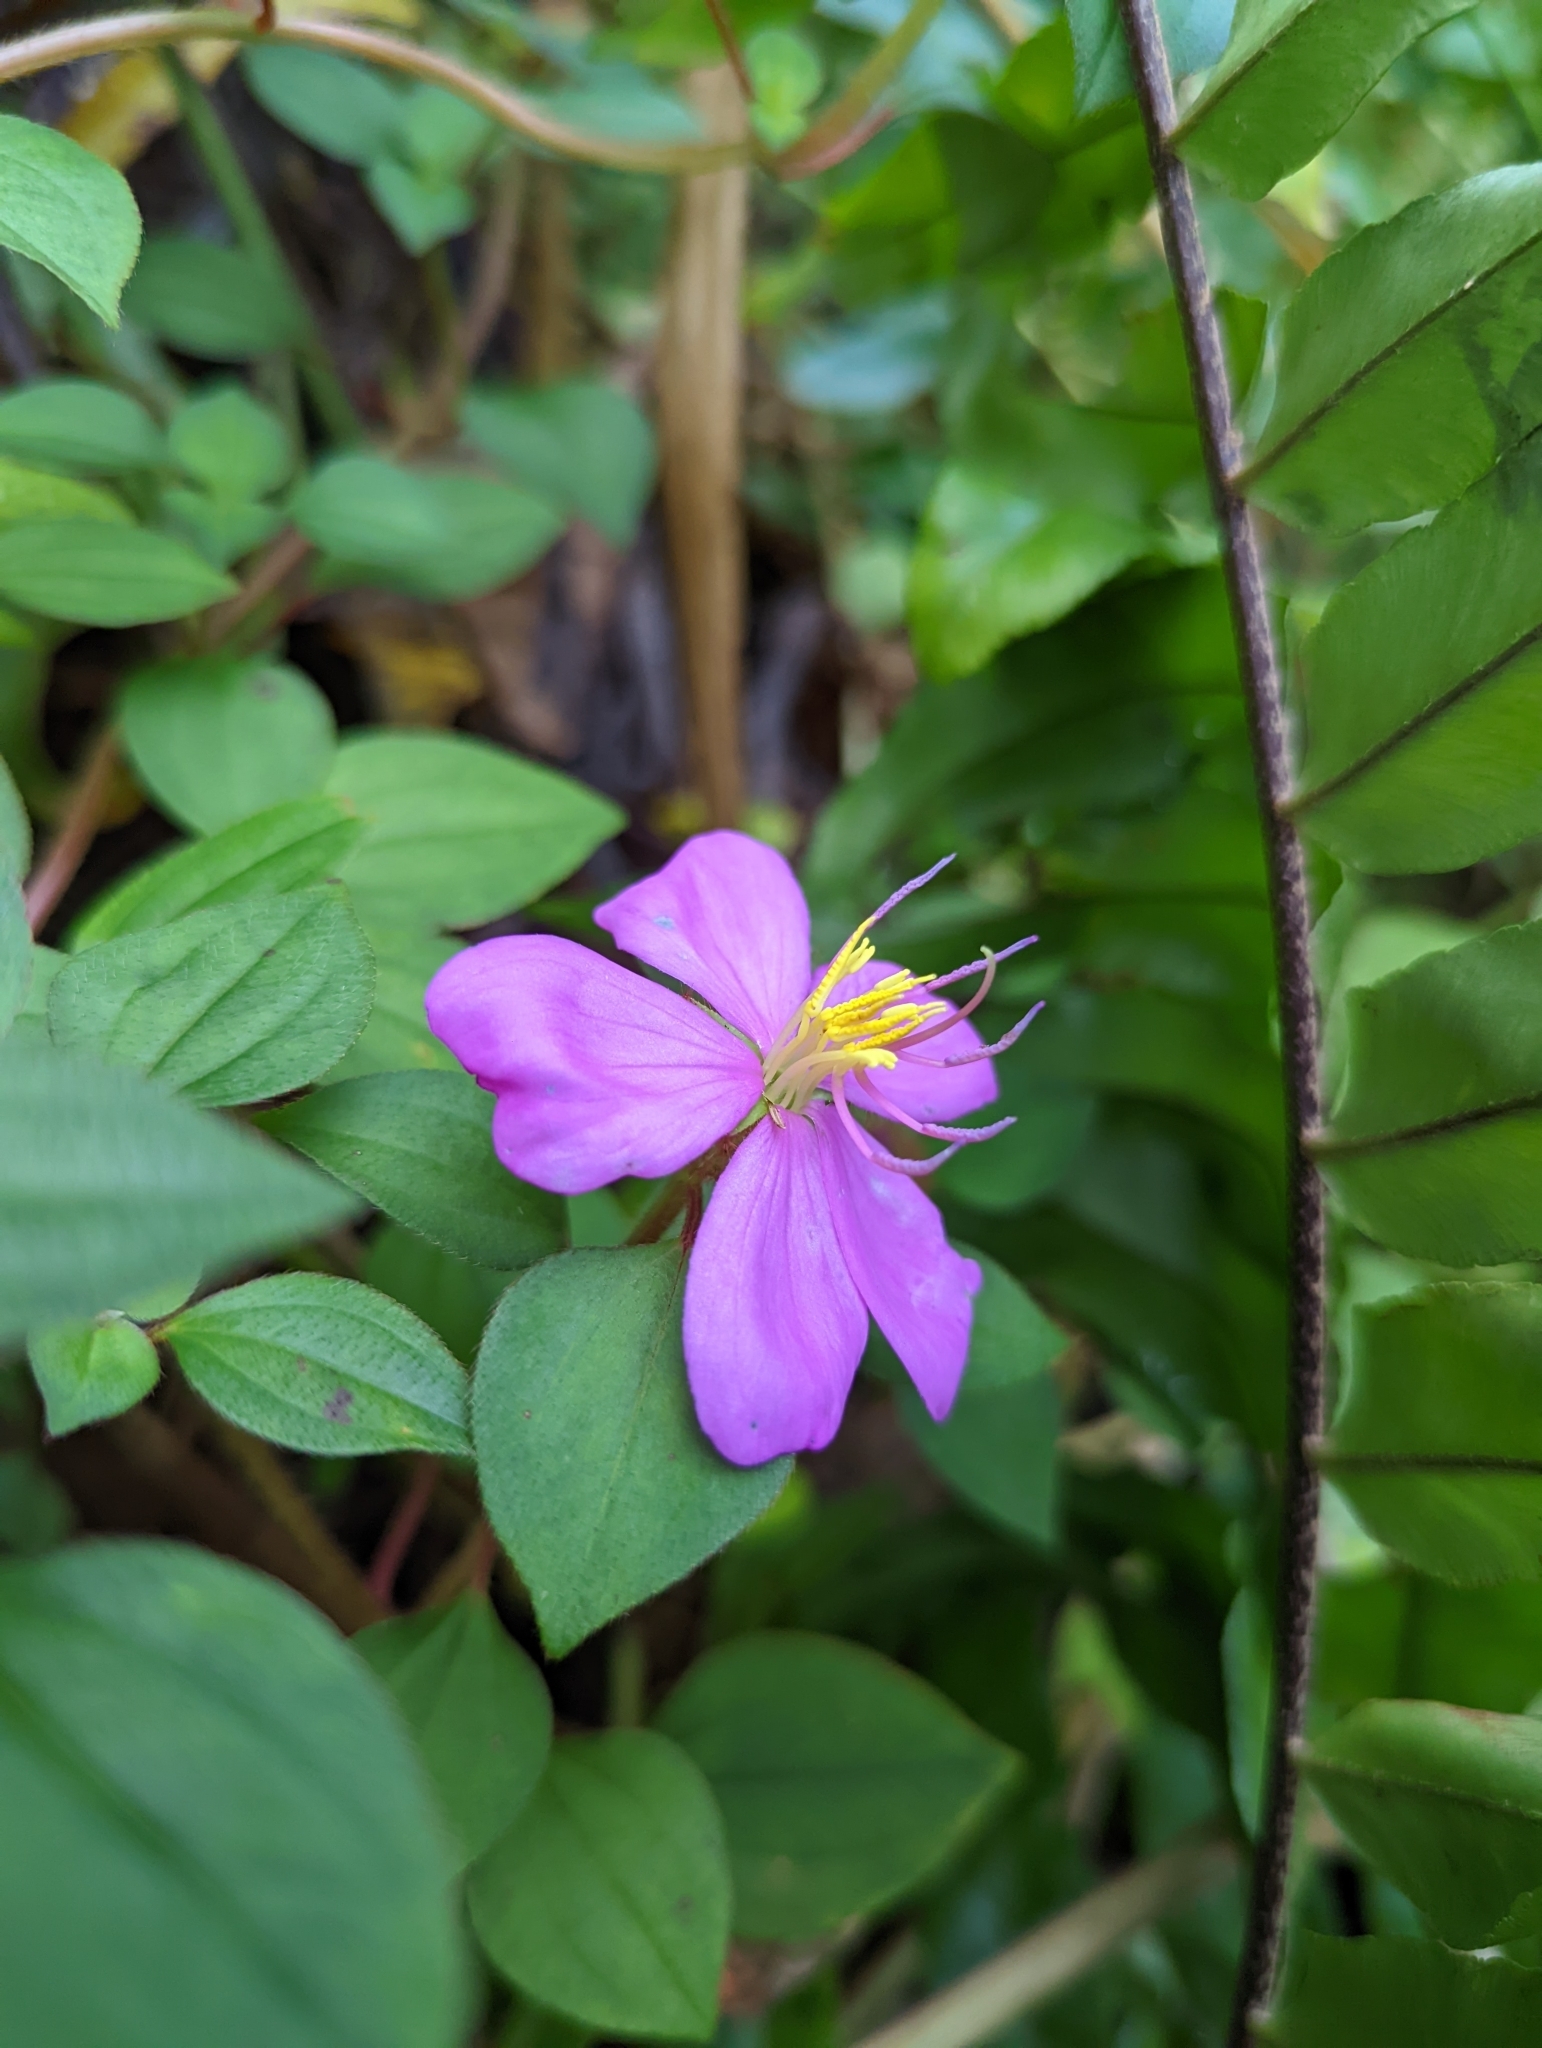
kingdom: Plantae
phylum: Tracheophyta
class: Magnoliopsida
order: Myrtales
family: Melastomataceae
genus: Heterotis
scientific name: Heterotis rotundifolia
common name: Pinklady
